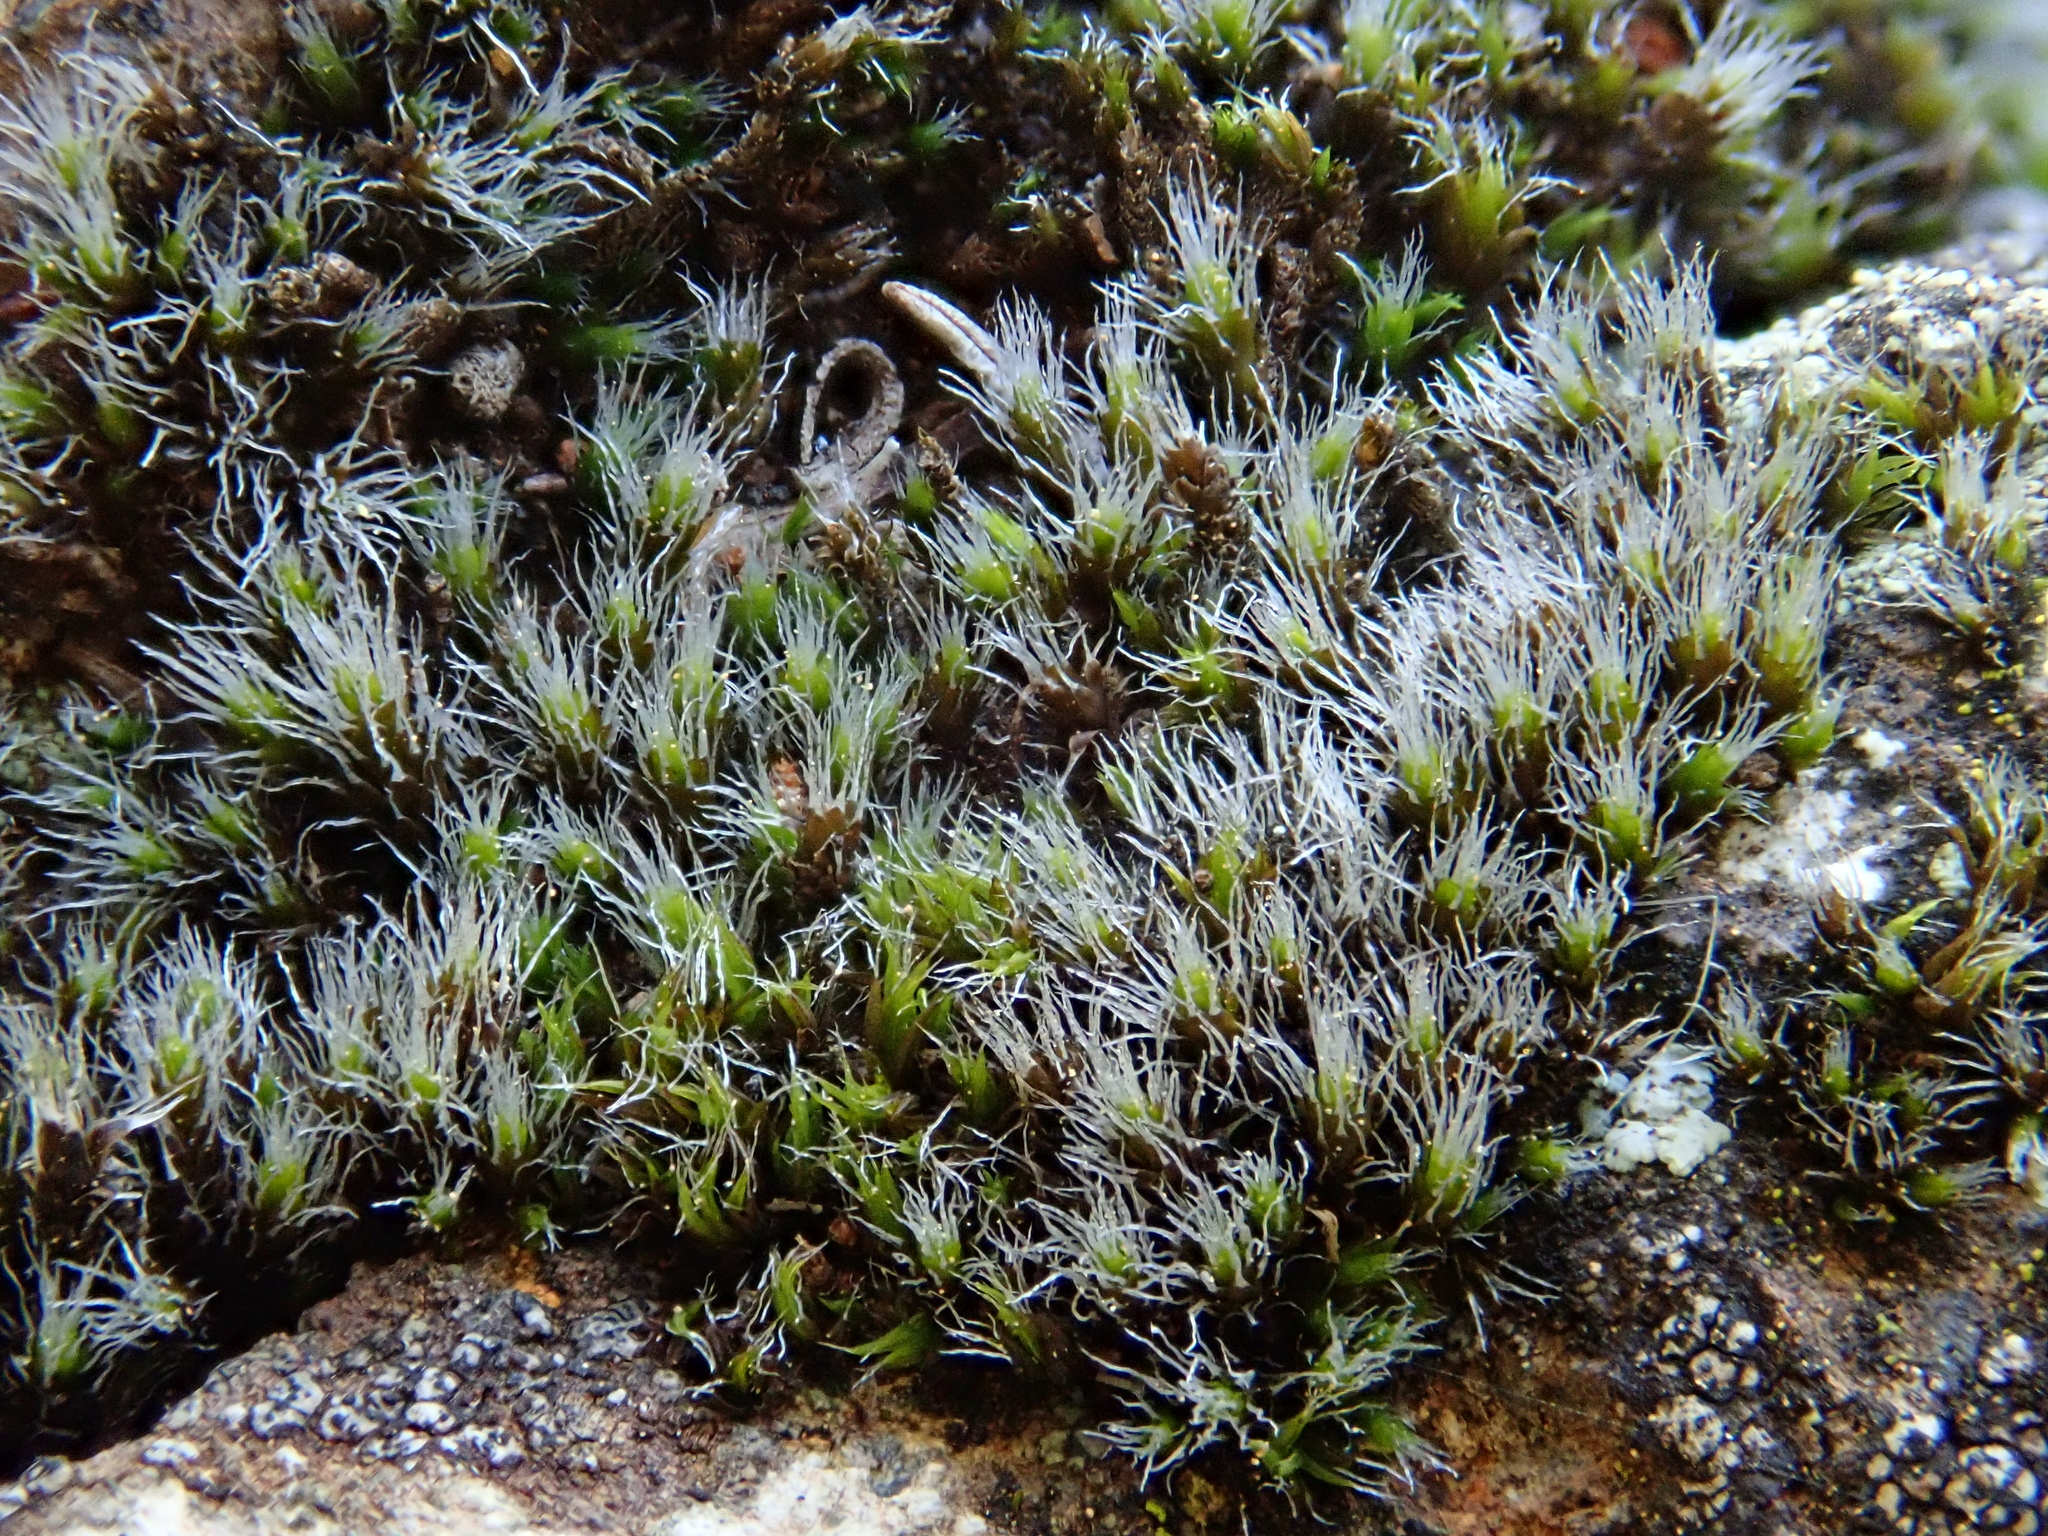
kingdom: Plantae
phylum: Bryophyta
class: Bryopsida
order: Grimmiales
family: Grimmiaceae
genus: Grimmia
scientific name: Grimmia laevigata
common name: Hoary grimmia
